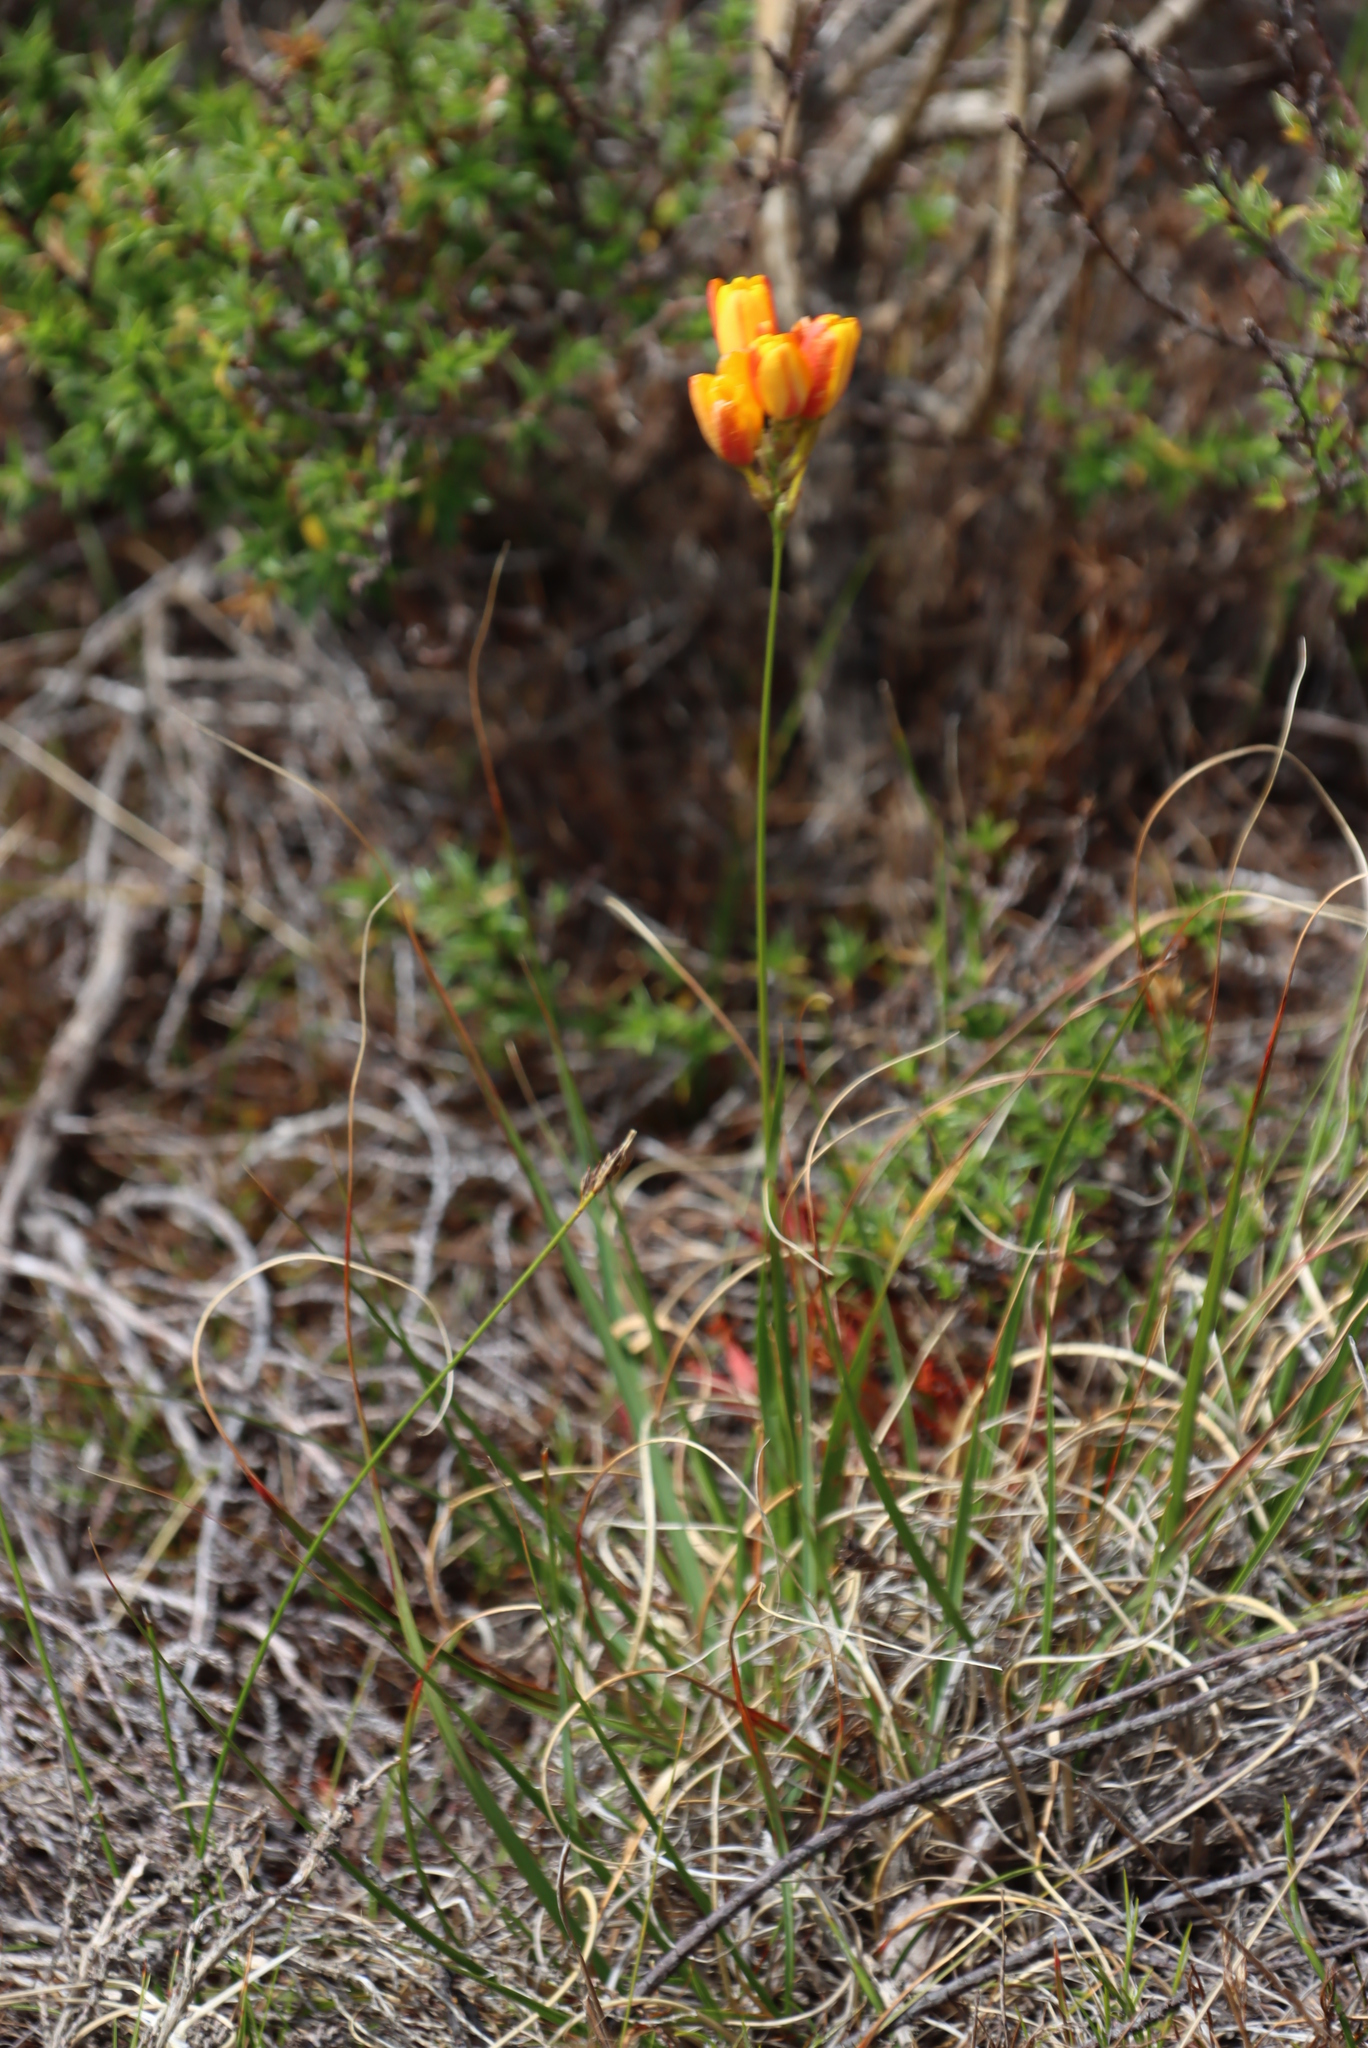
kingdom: Plantae
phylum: Tracheophyta
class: Liliopsida
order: Asparagales
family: Iridaceae
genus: Ixia
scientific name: Ixia dubia
